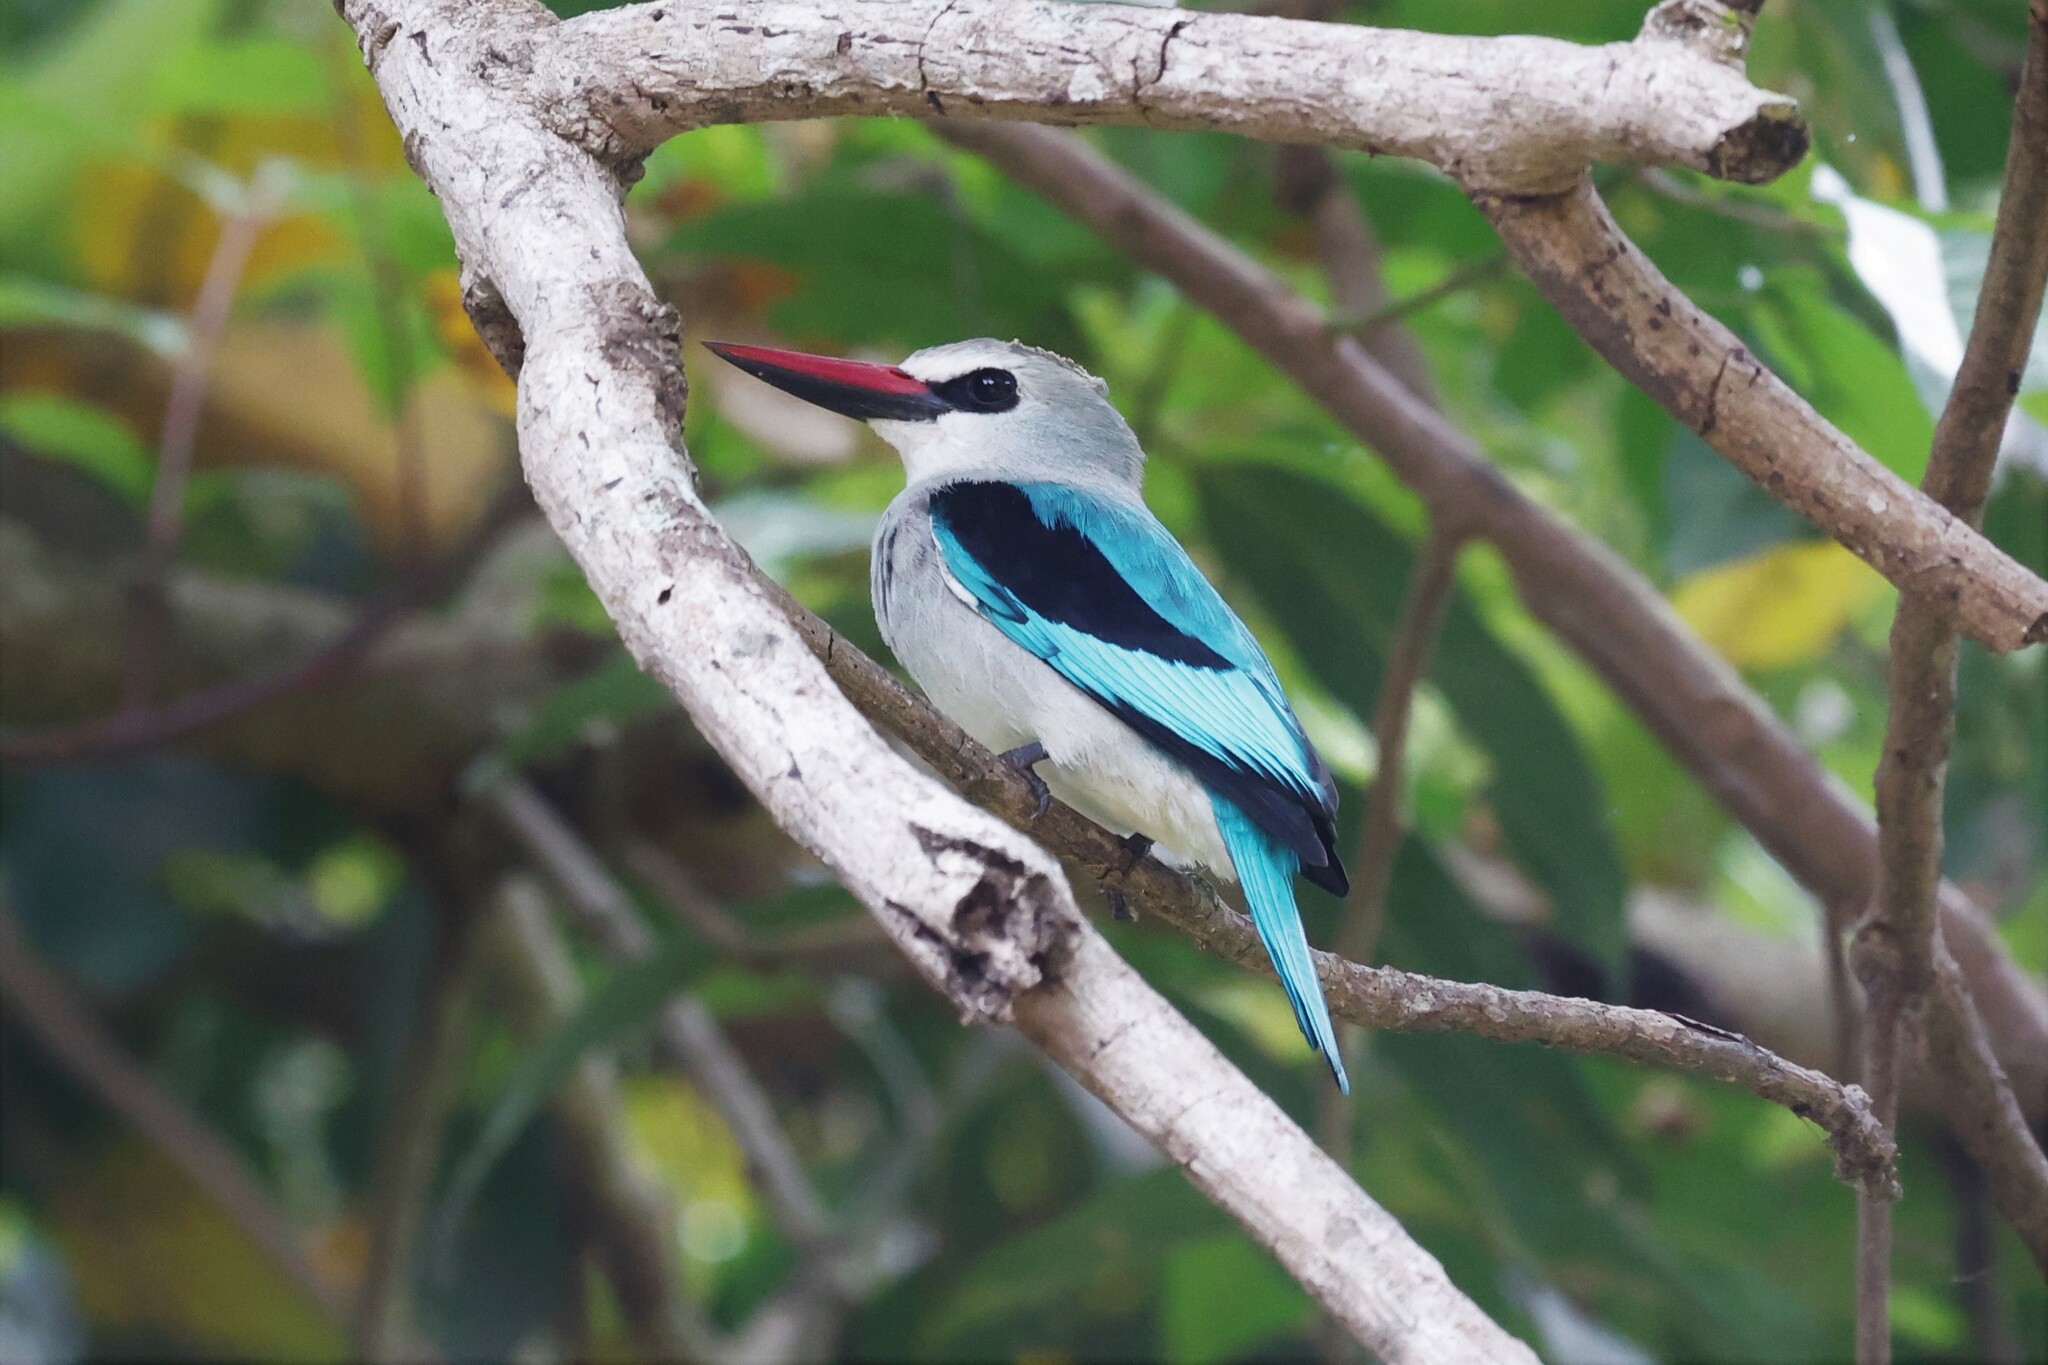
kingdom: Animalia
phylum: Chordata
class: Aves
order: Coraciiformes
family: Alcedinidae
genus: Halcyon
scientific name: Halcyon senegalensis
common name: Woodland kingfisher
